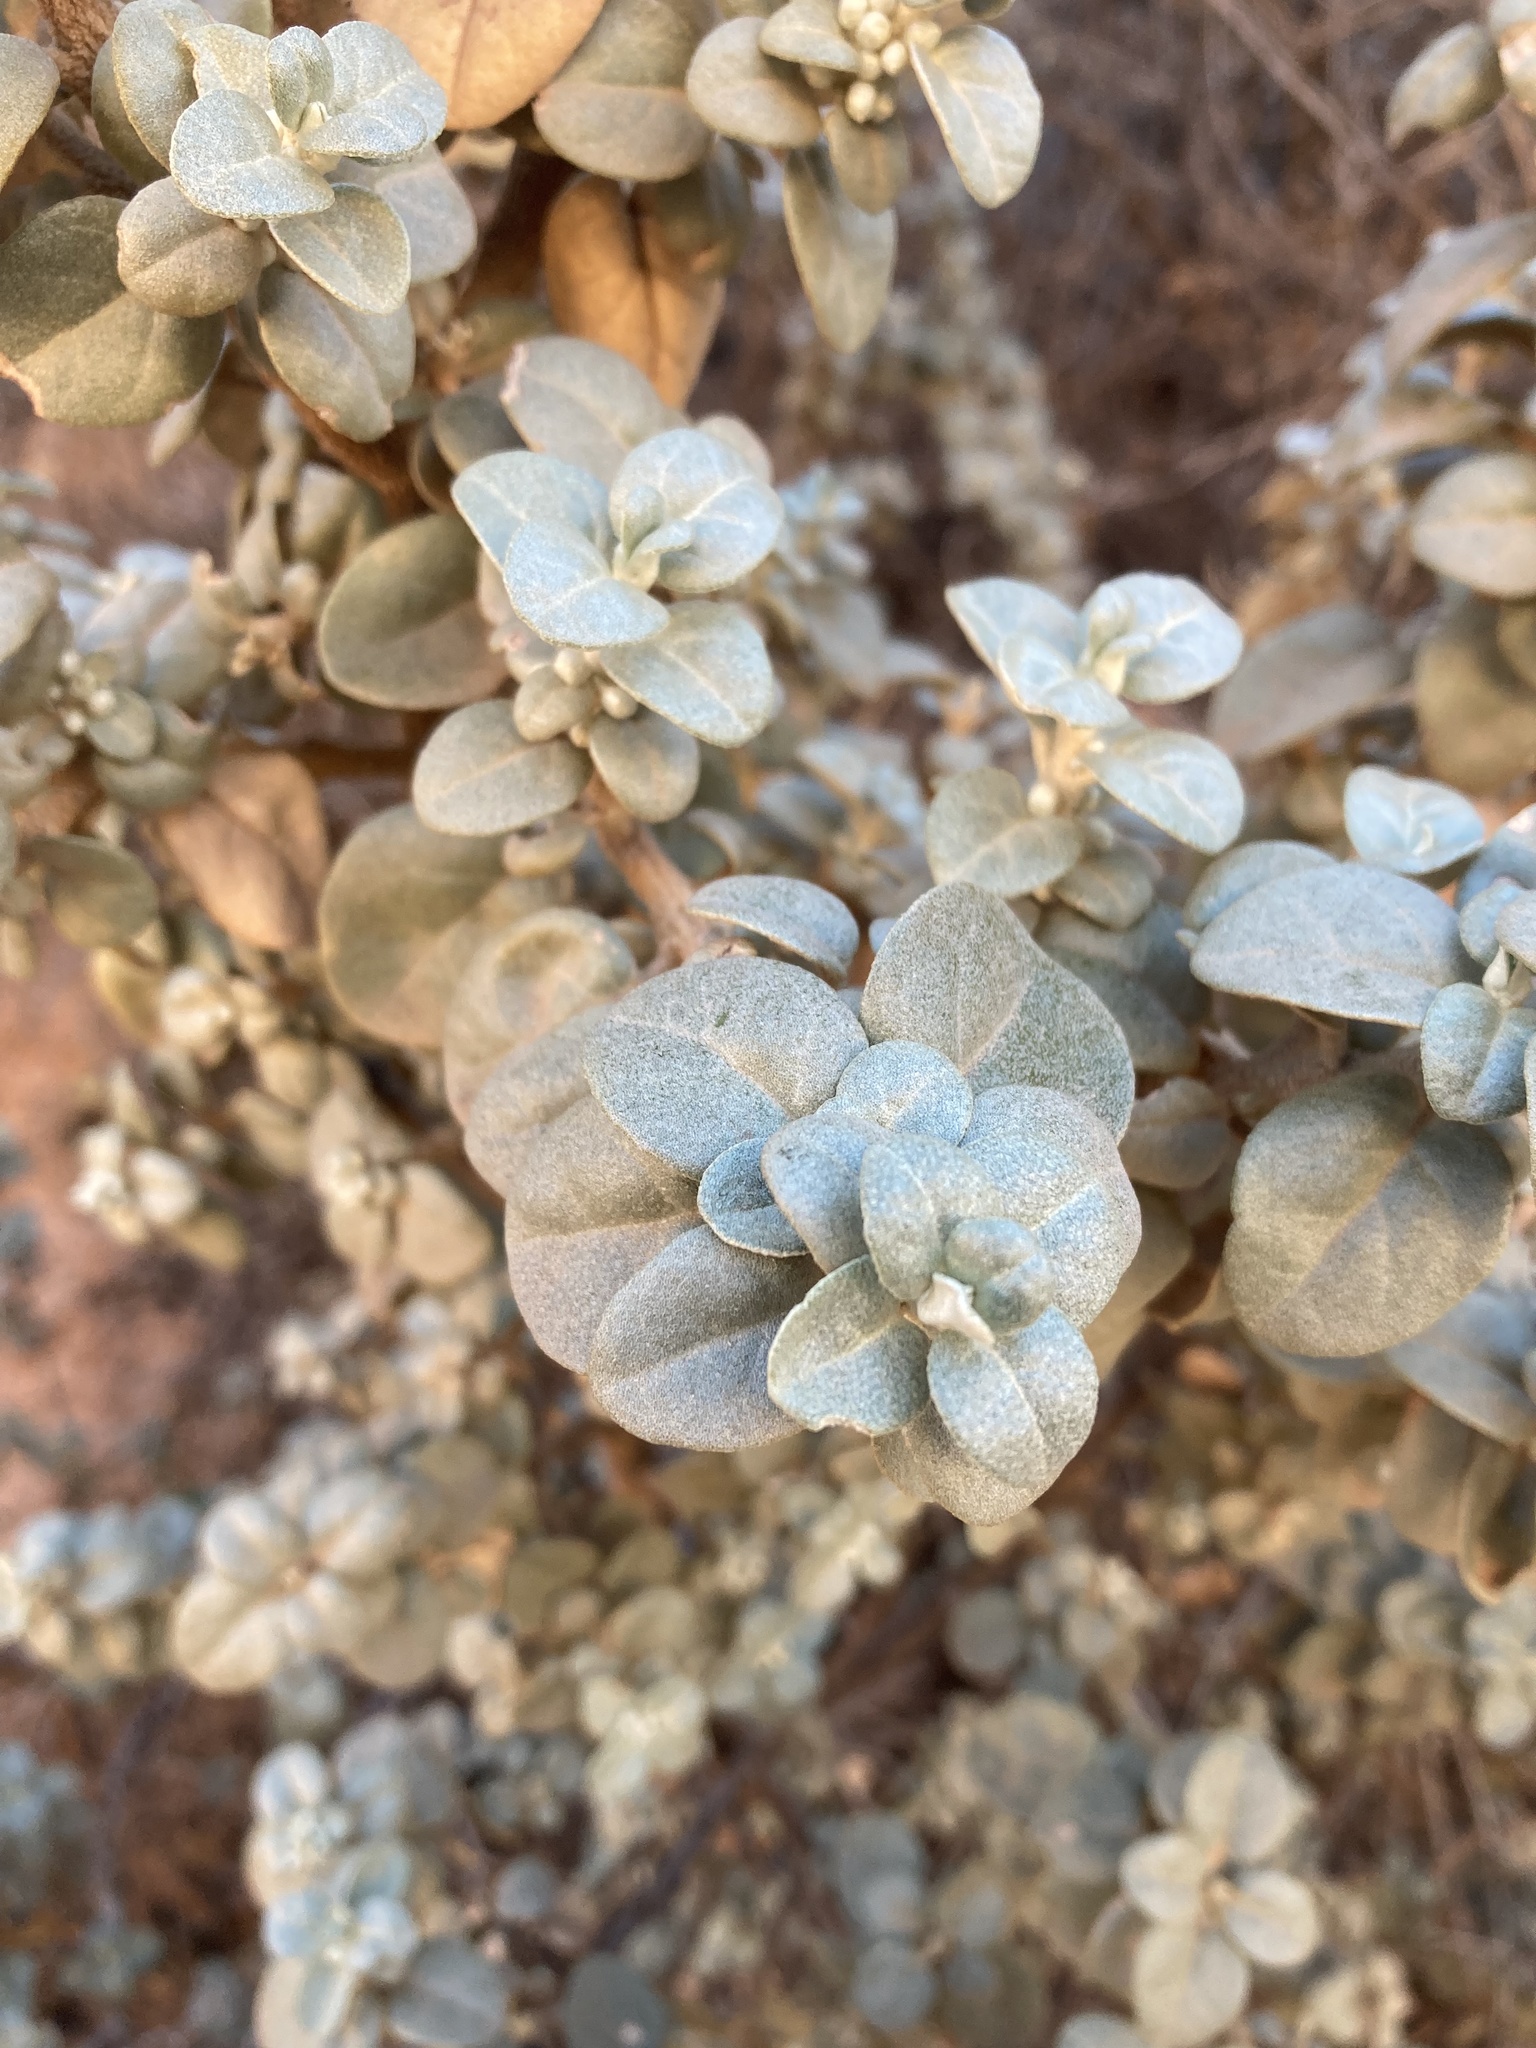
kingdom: Plantae
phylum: Tracheophyta
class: Magnoliopsida
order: Rosales
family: Elaeagnaceae
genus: Shepherdia
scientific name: Shepherdia rotundifolia
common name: Silverscale
